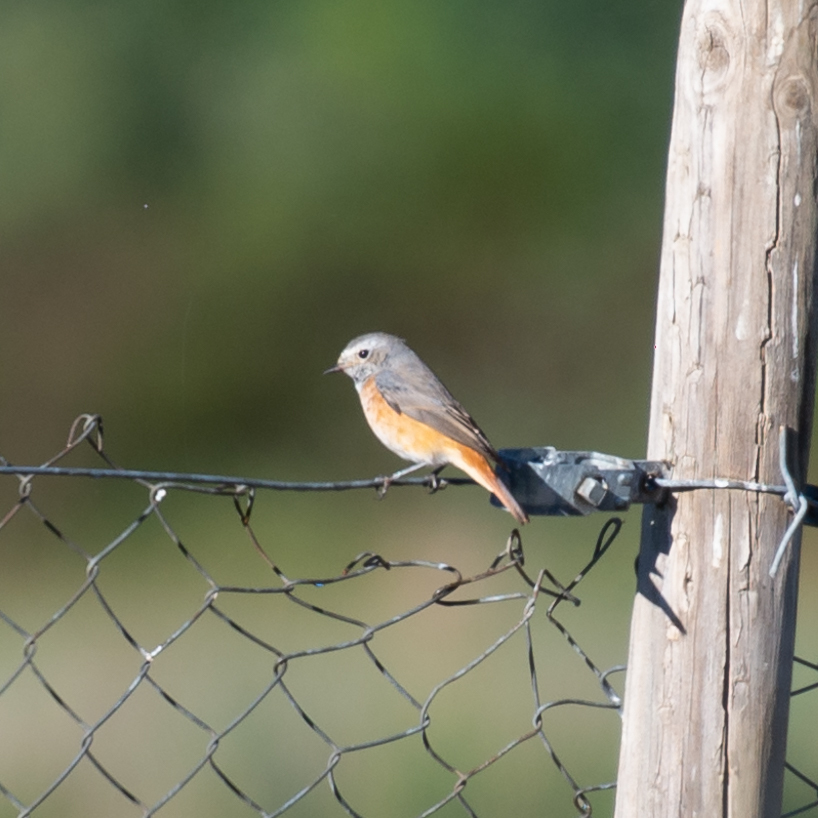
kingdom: Animalia
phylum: Chordata
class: Aves
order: Passeriformes
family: Muscicapidae
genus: Phoenicurus
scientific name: Phoenicurus phoenicurus
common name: Common redstart
